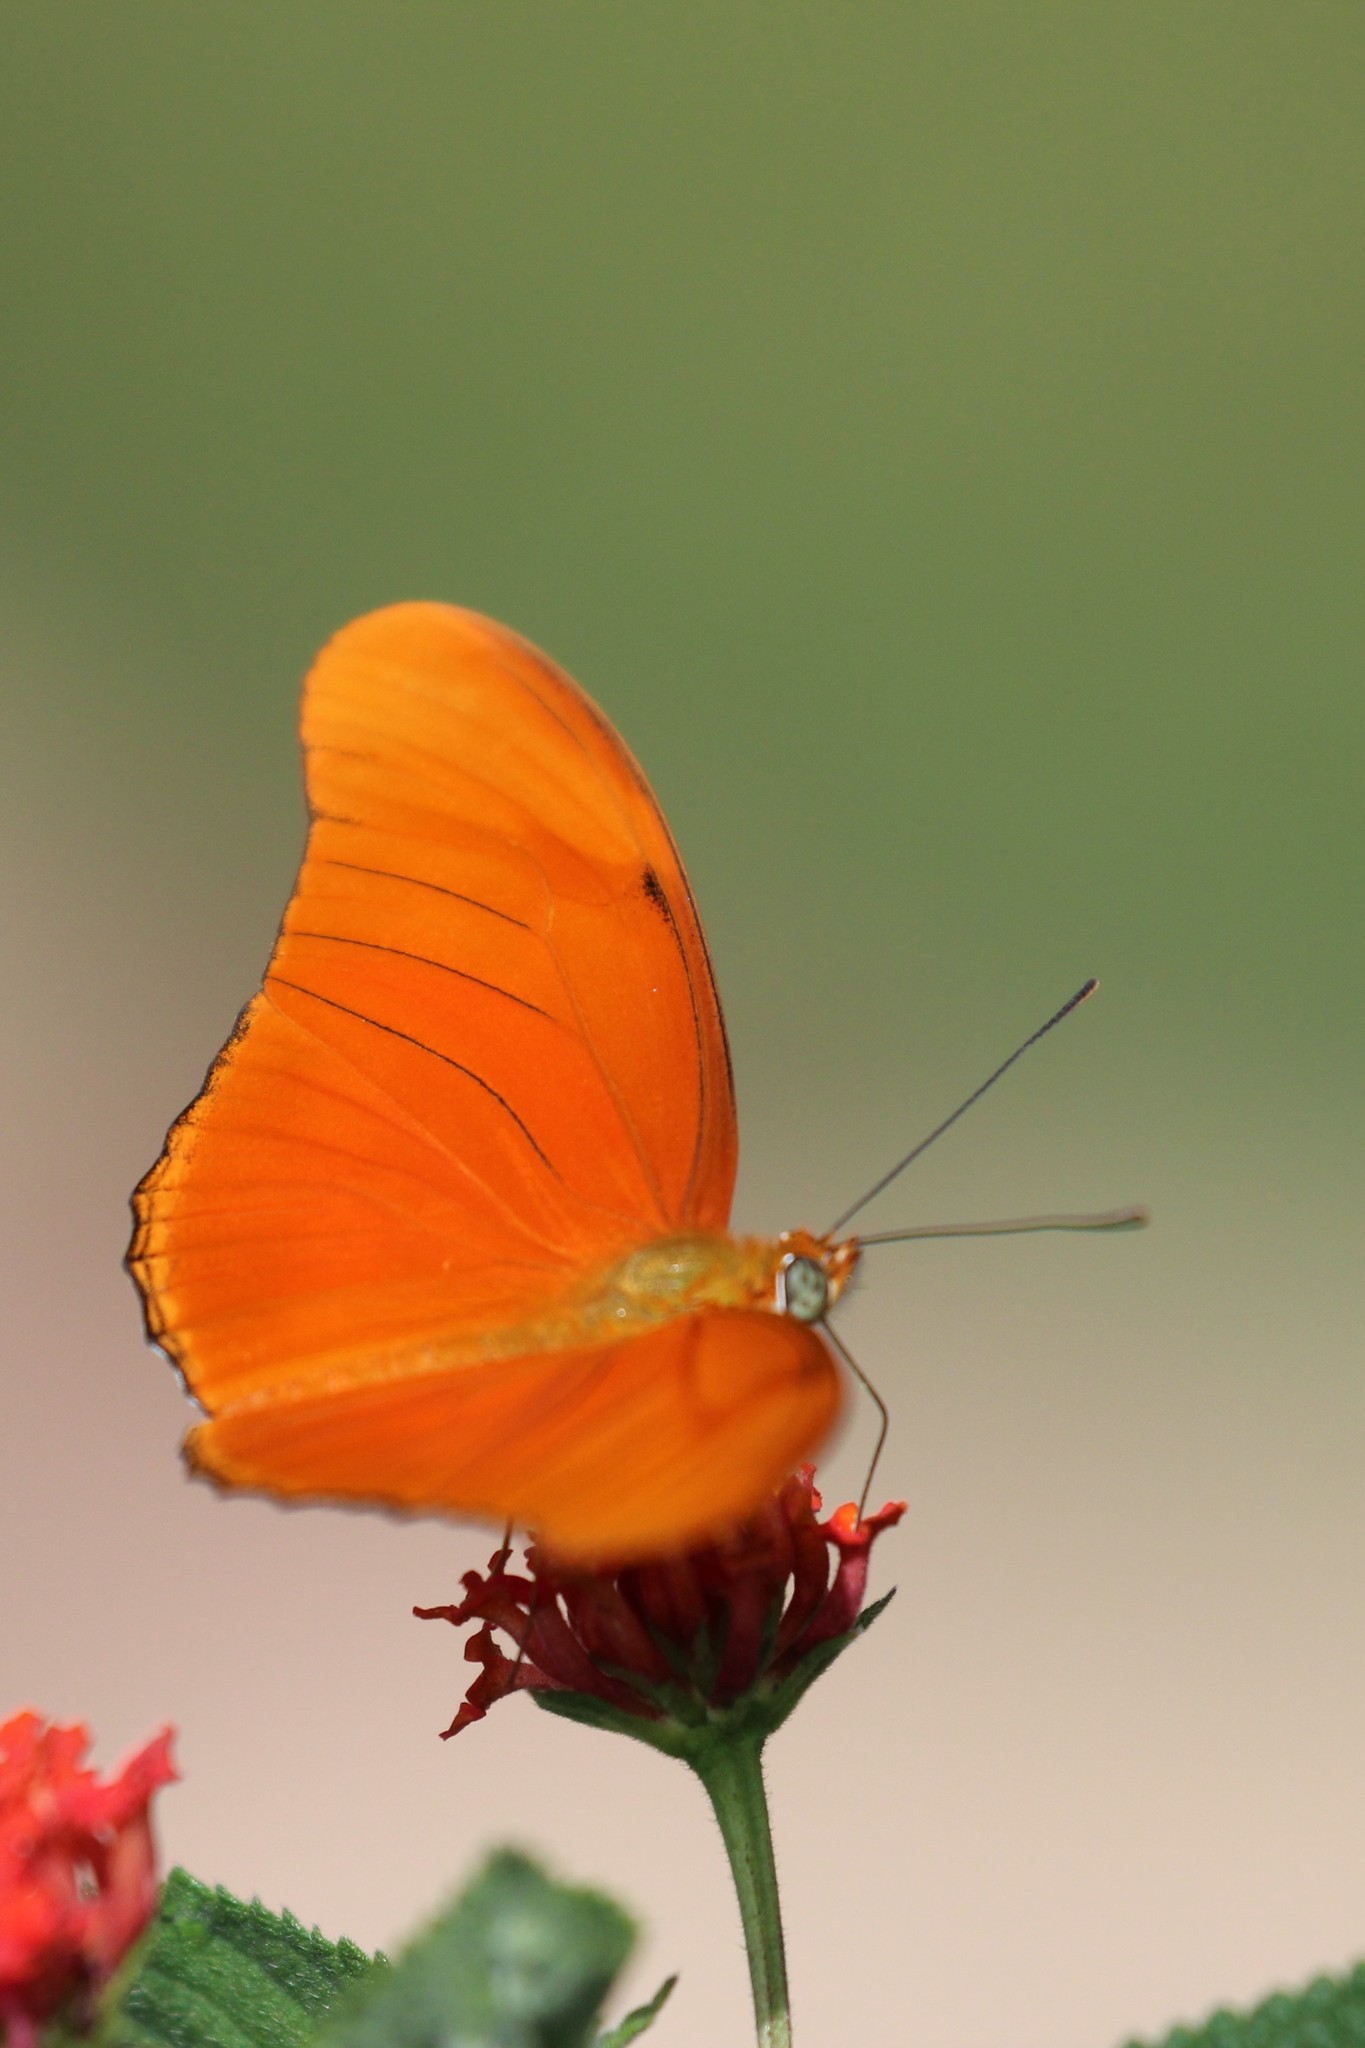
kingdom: Animalia
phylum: Arthropoda
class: Insecta
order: Lepidoptera
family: Nymphalidae
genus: Dryas
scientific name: Dryas iulia
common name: Flambeau
